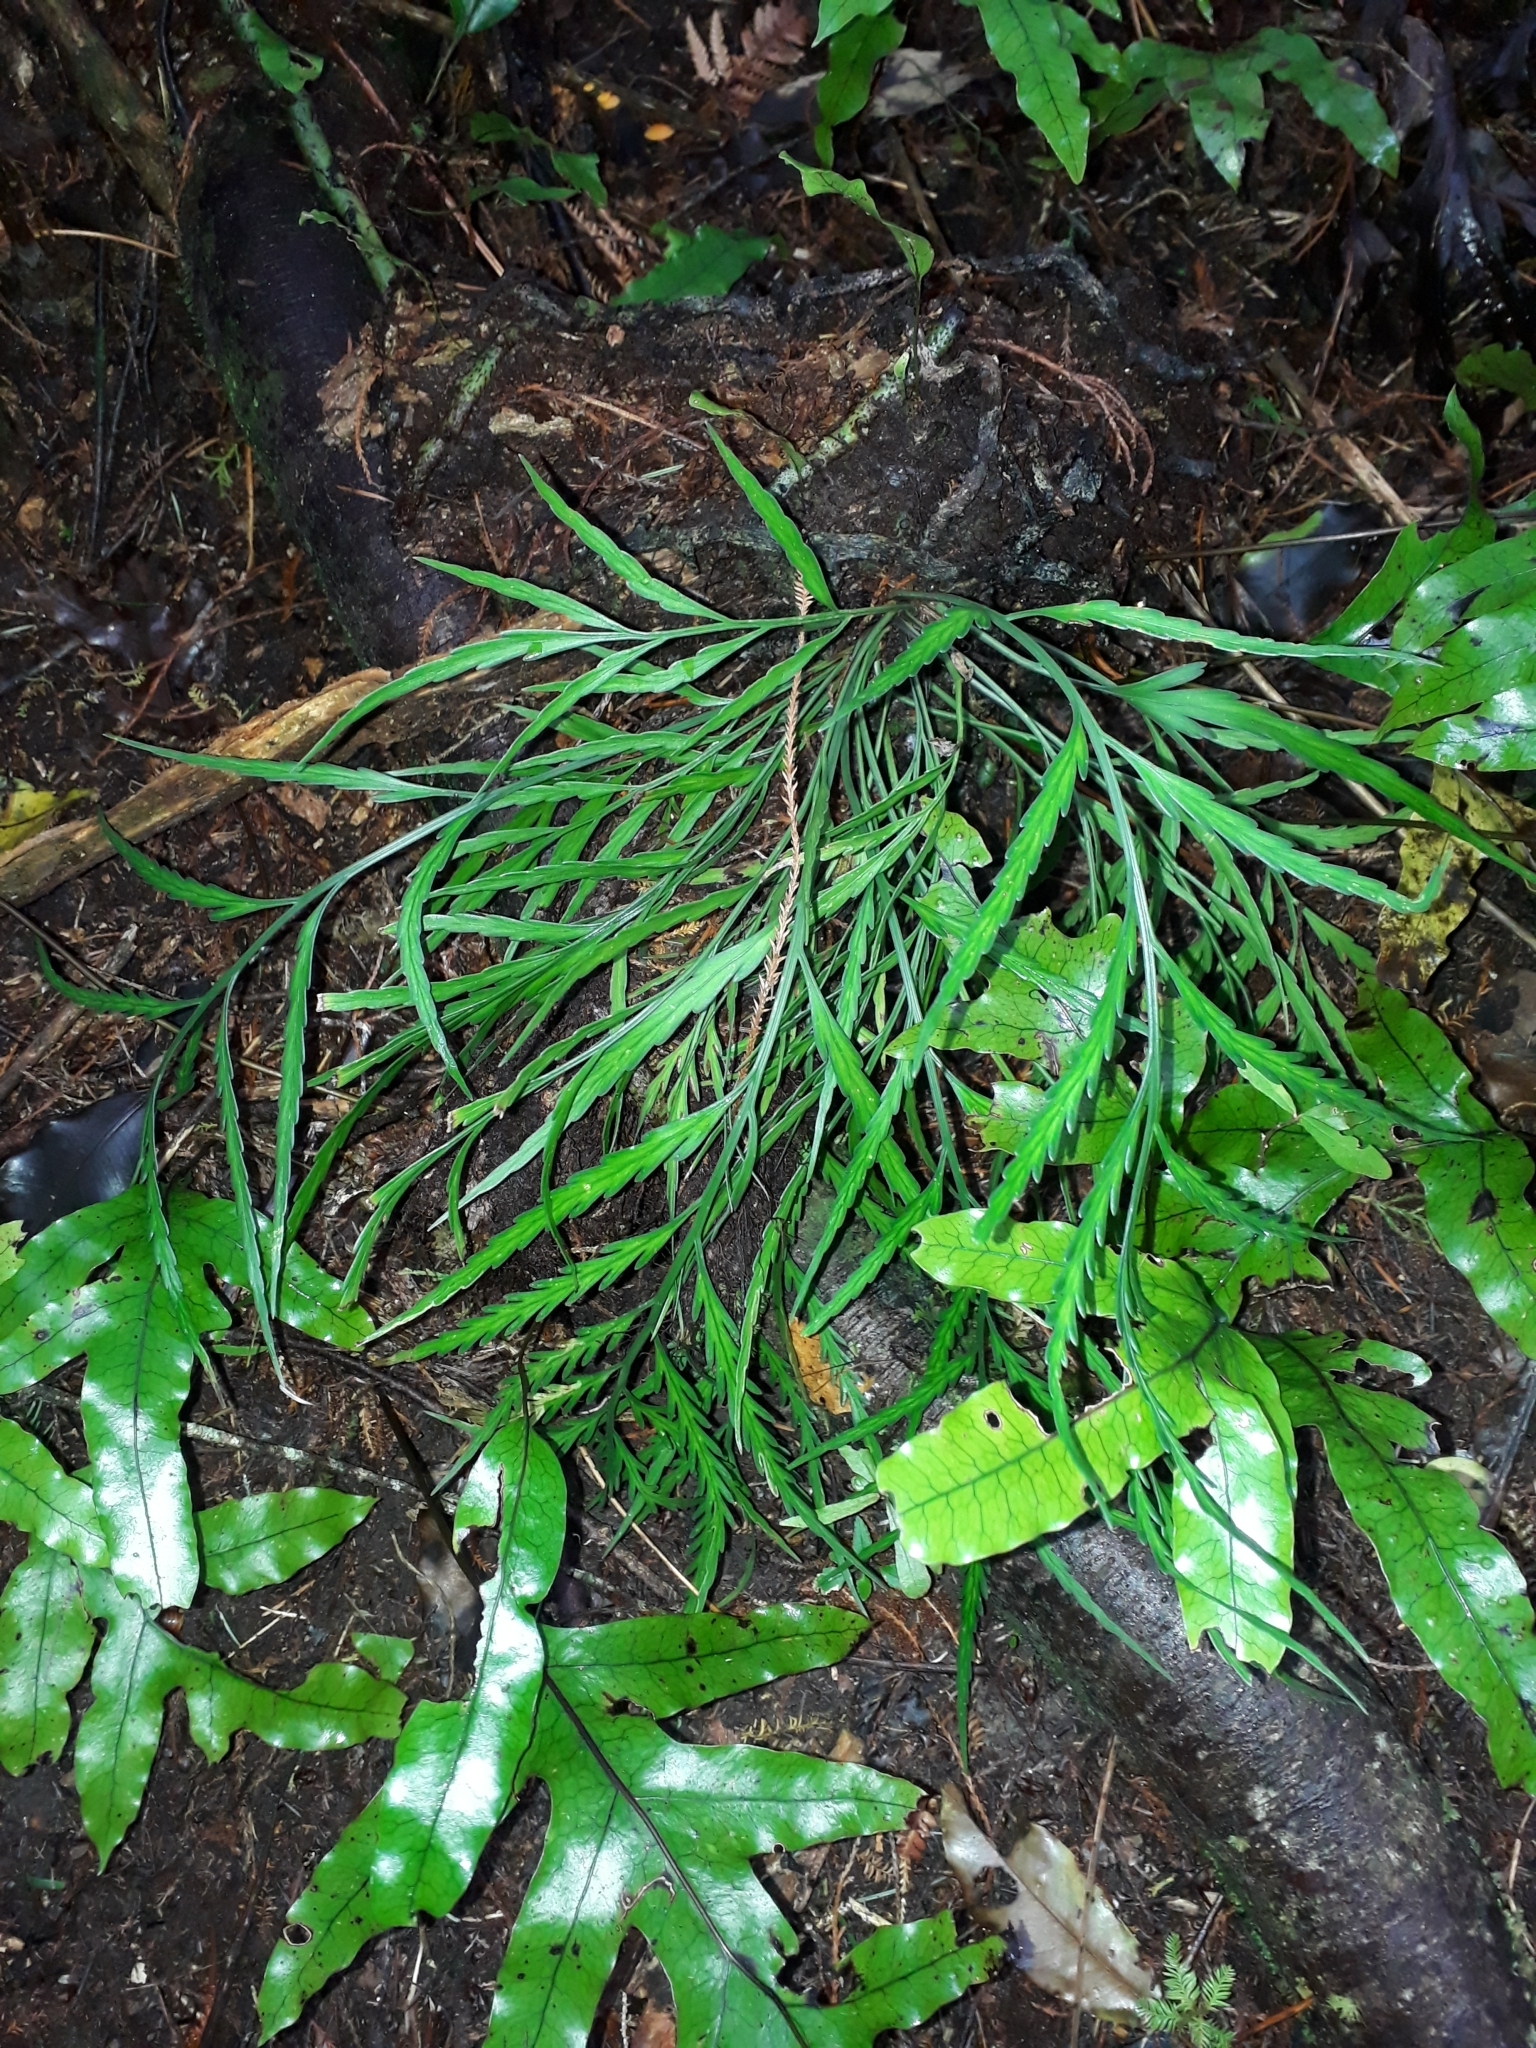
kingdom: Plantae
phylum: Tracheophyta
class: Polypodiopsida
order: Polypodiales
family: Aspleniaceae
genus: Asplenium
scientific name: Asplenium flaccidum
